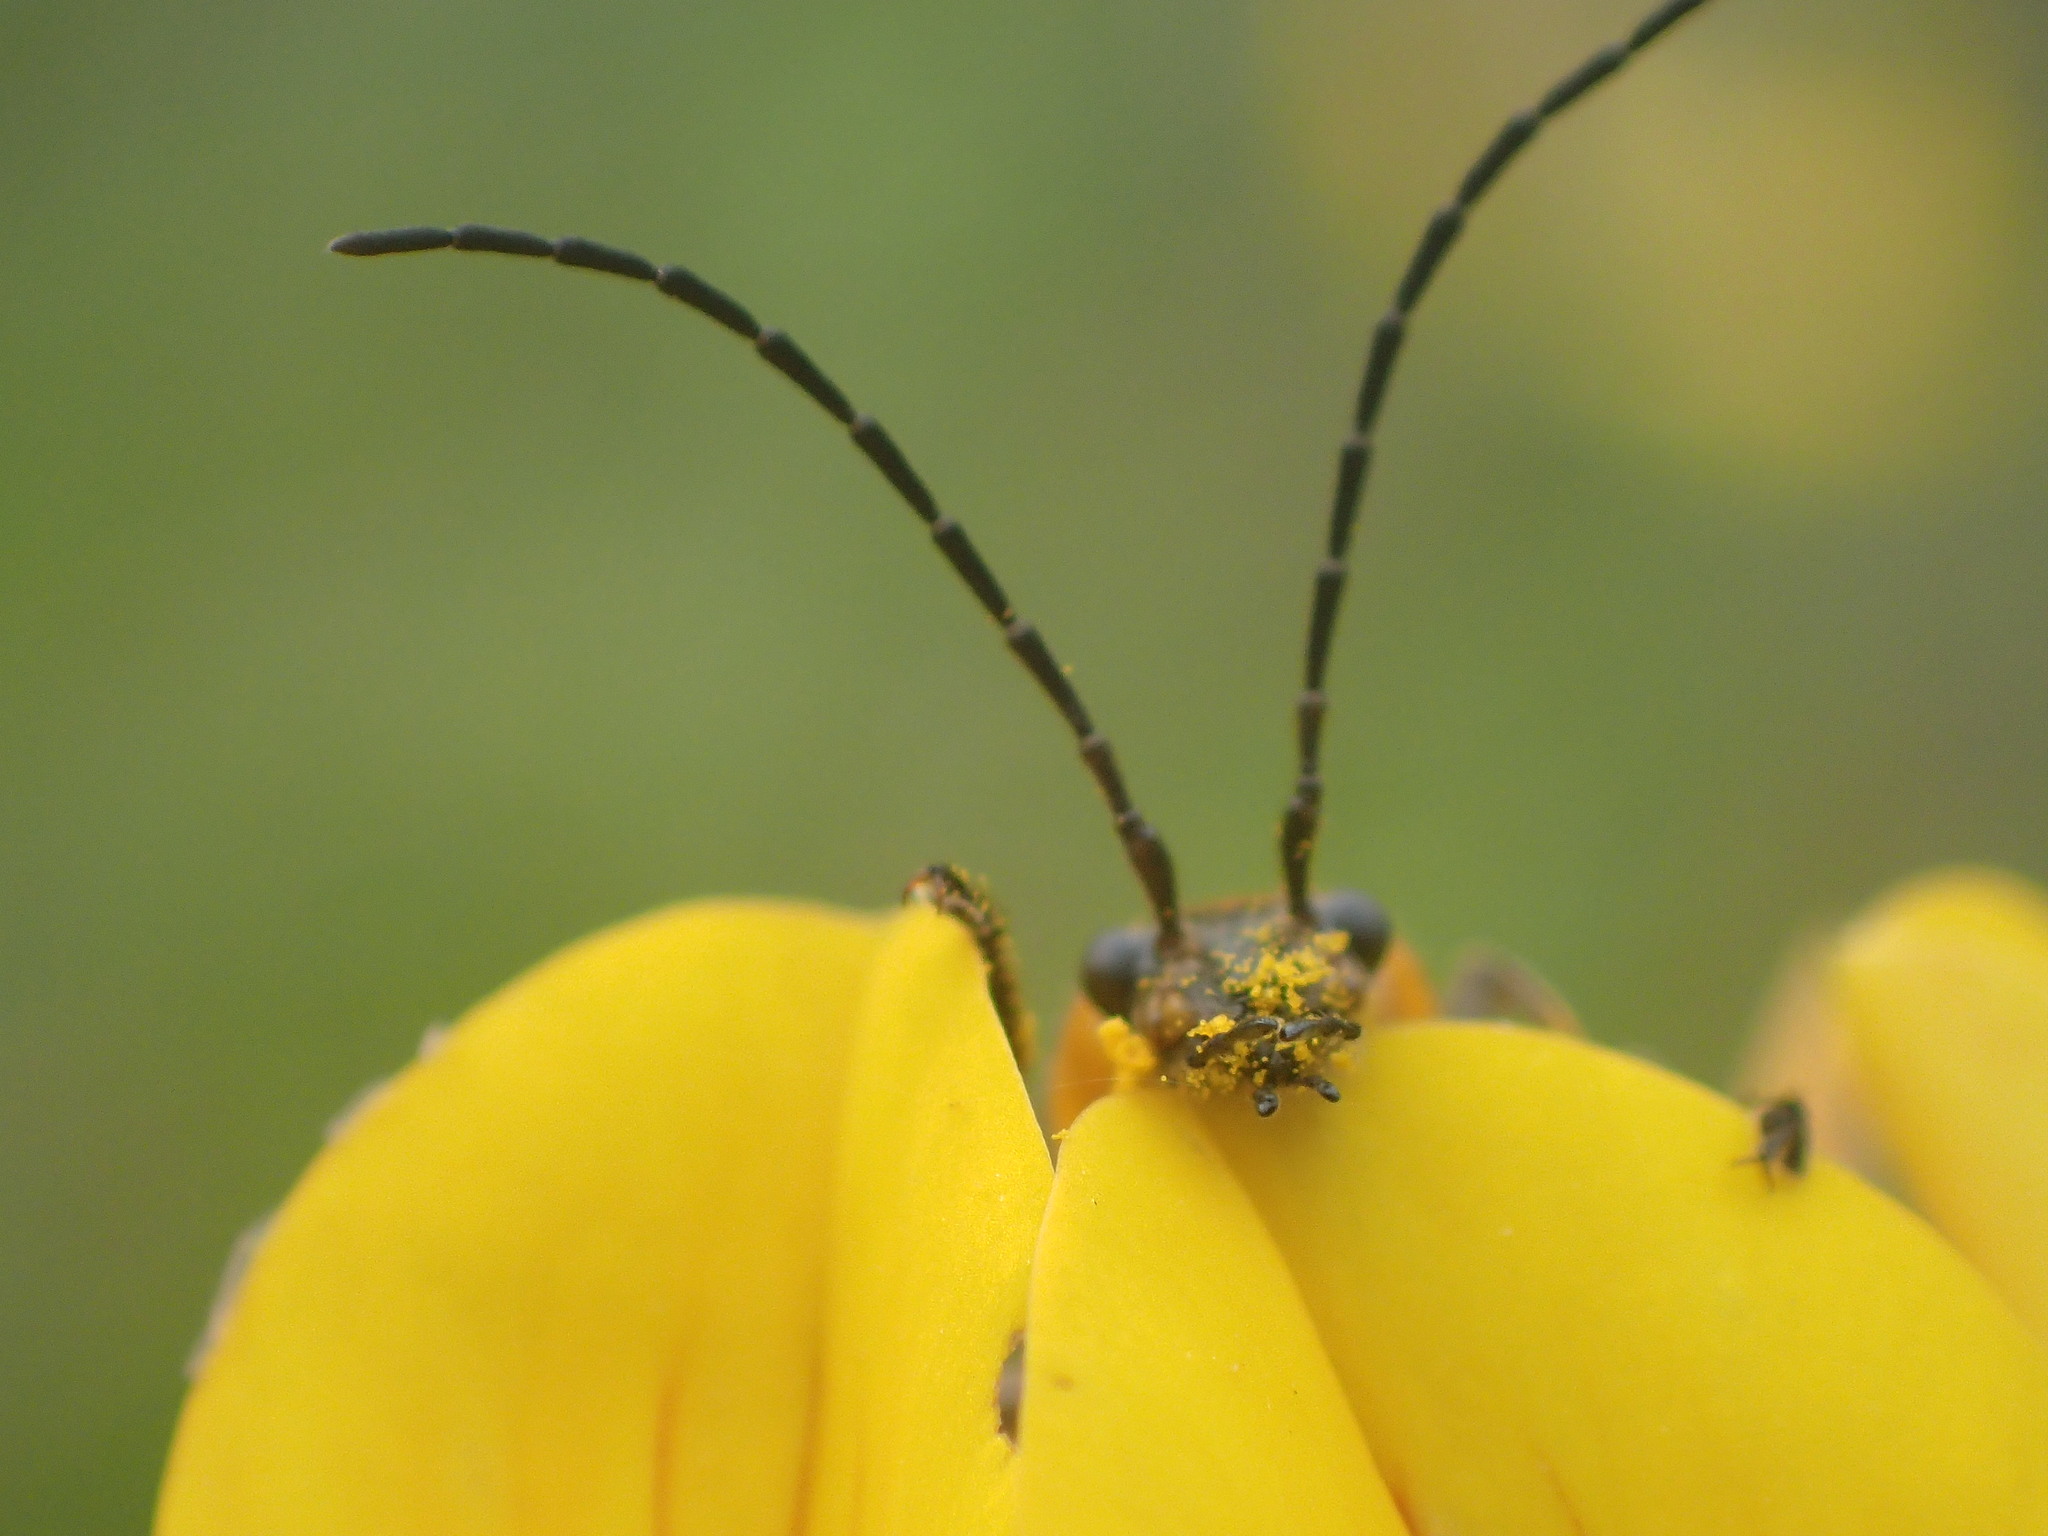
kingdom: Animalia
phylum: Arthropoda
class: Insecta
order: Coleoptera
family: Cantharidae
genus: Chauliognathus
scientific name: Chauliognathus pensylvanicus
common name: Goldenrod soldier beetle
